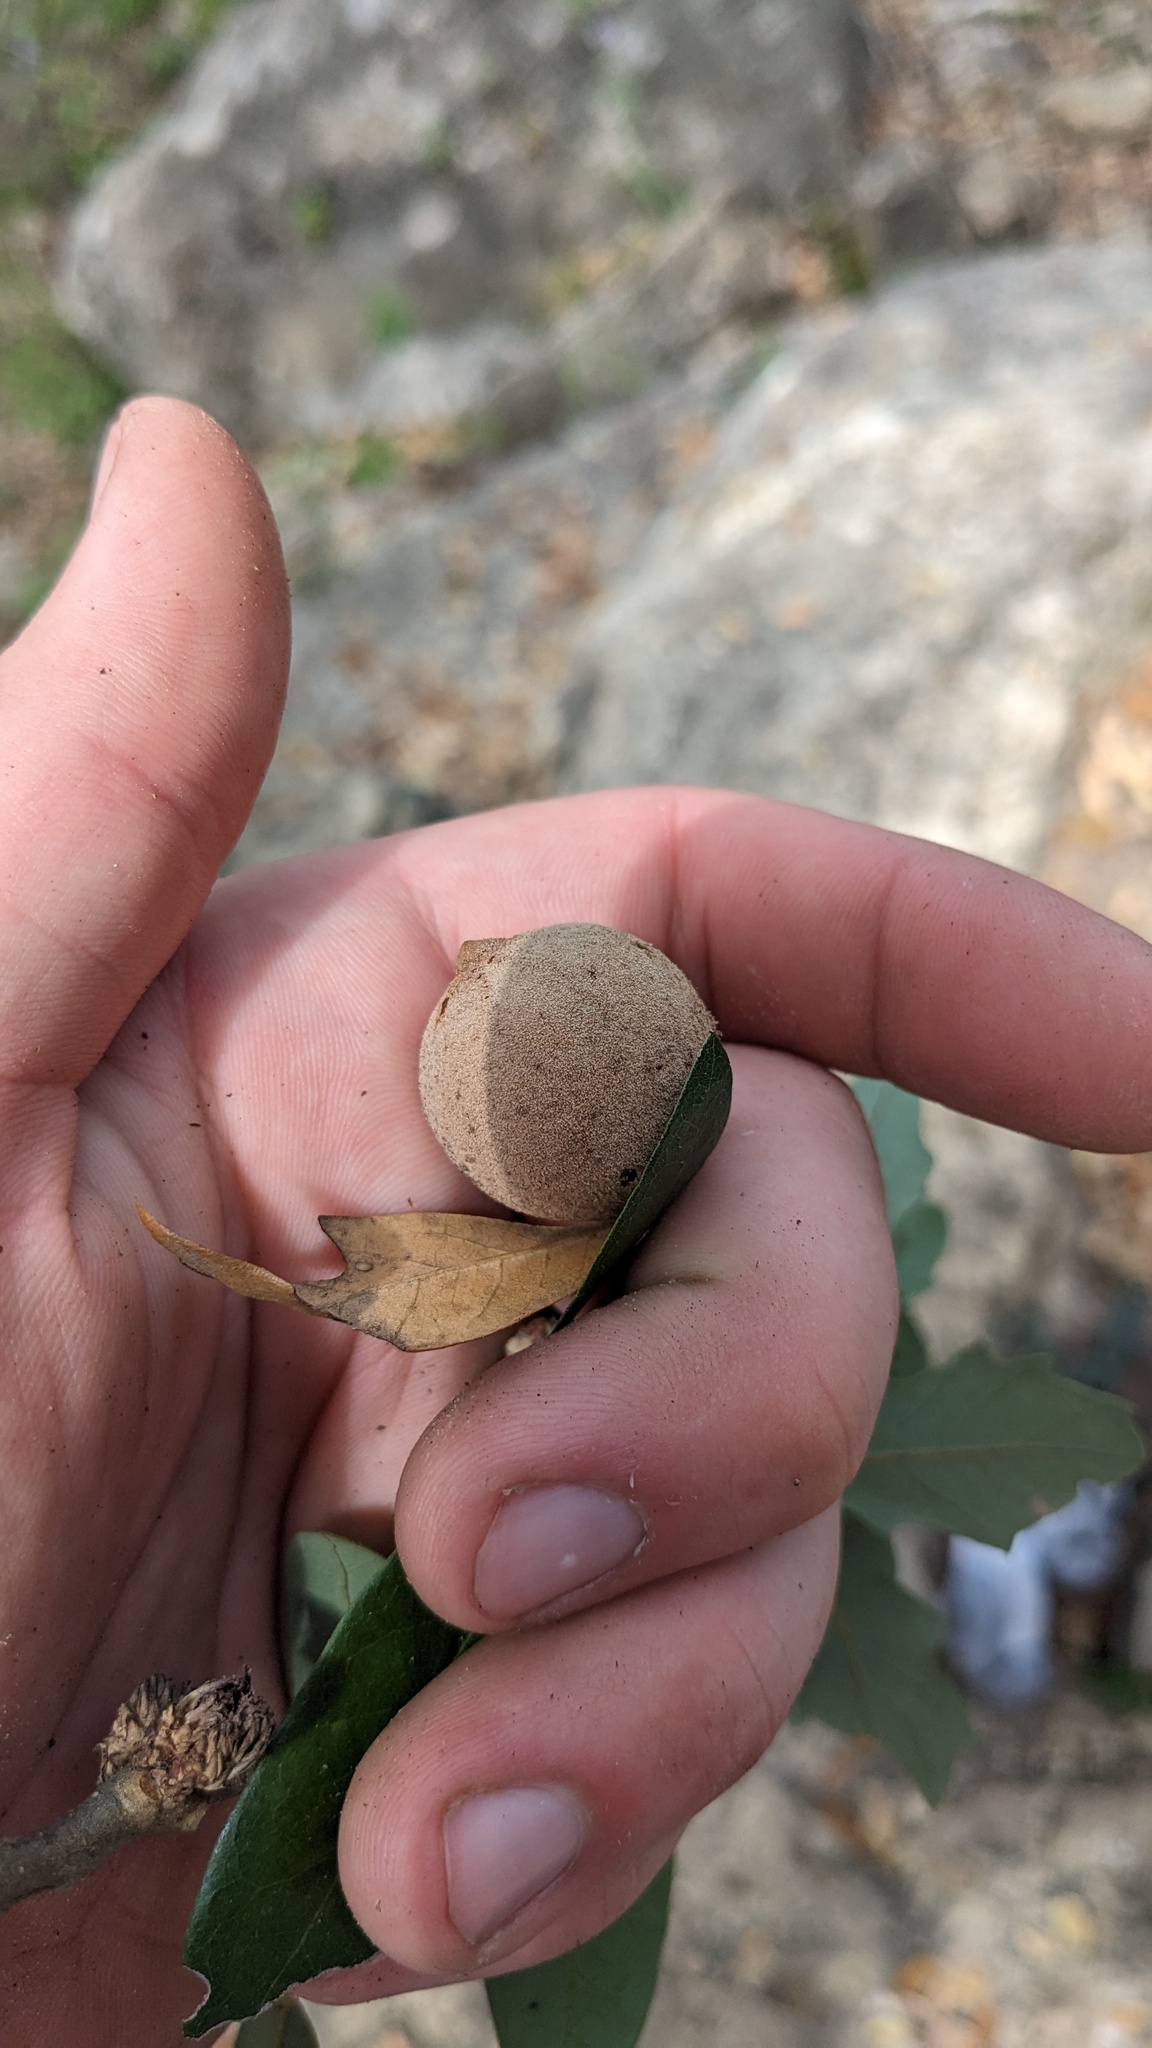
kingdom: Animalia
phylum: Arthropoda
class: Insecta
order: Hymenoptera
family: Cynipidae
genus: Disholcaspis
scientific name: Disholcaspis
